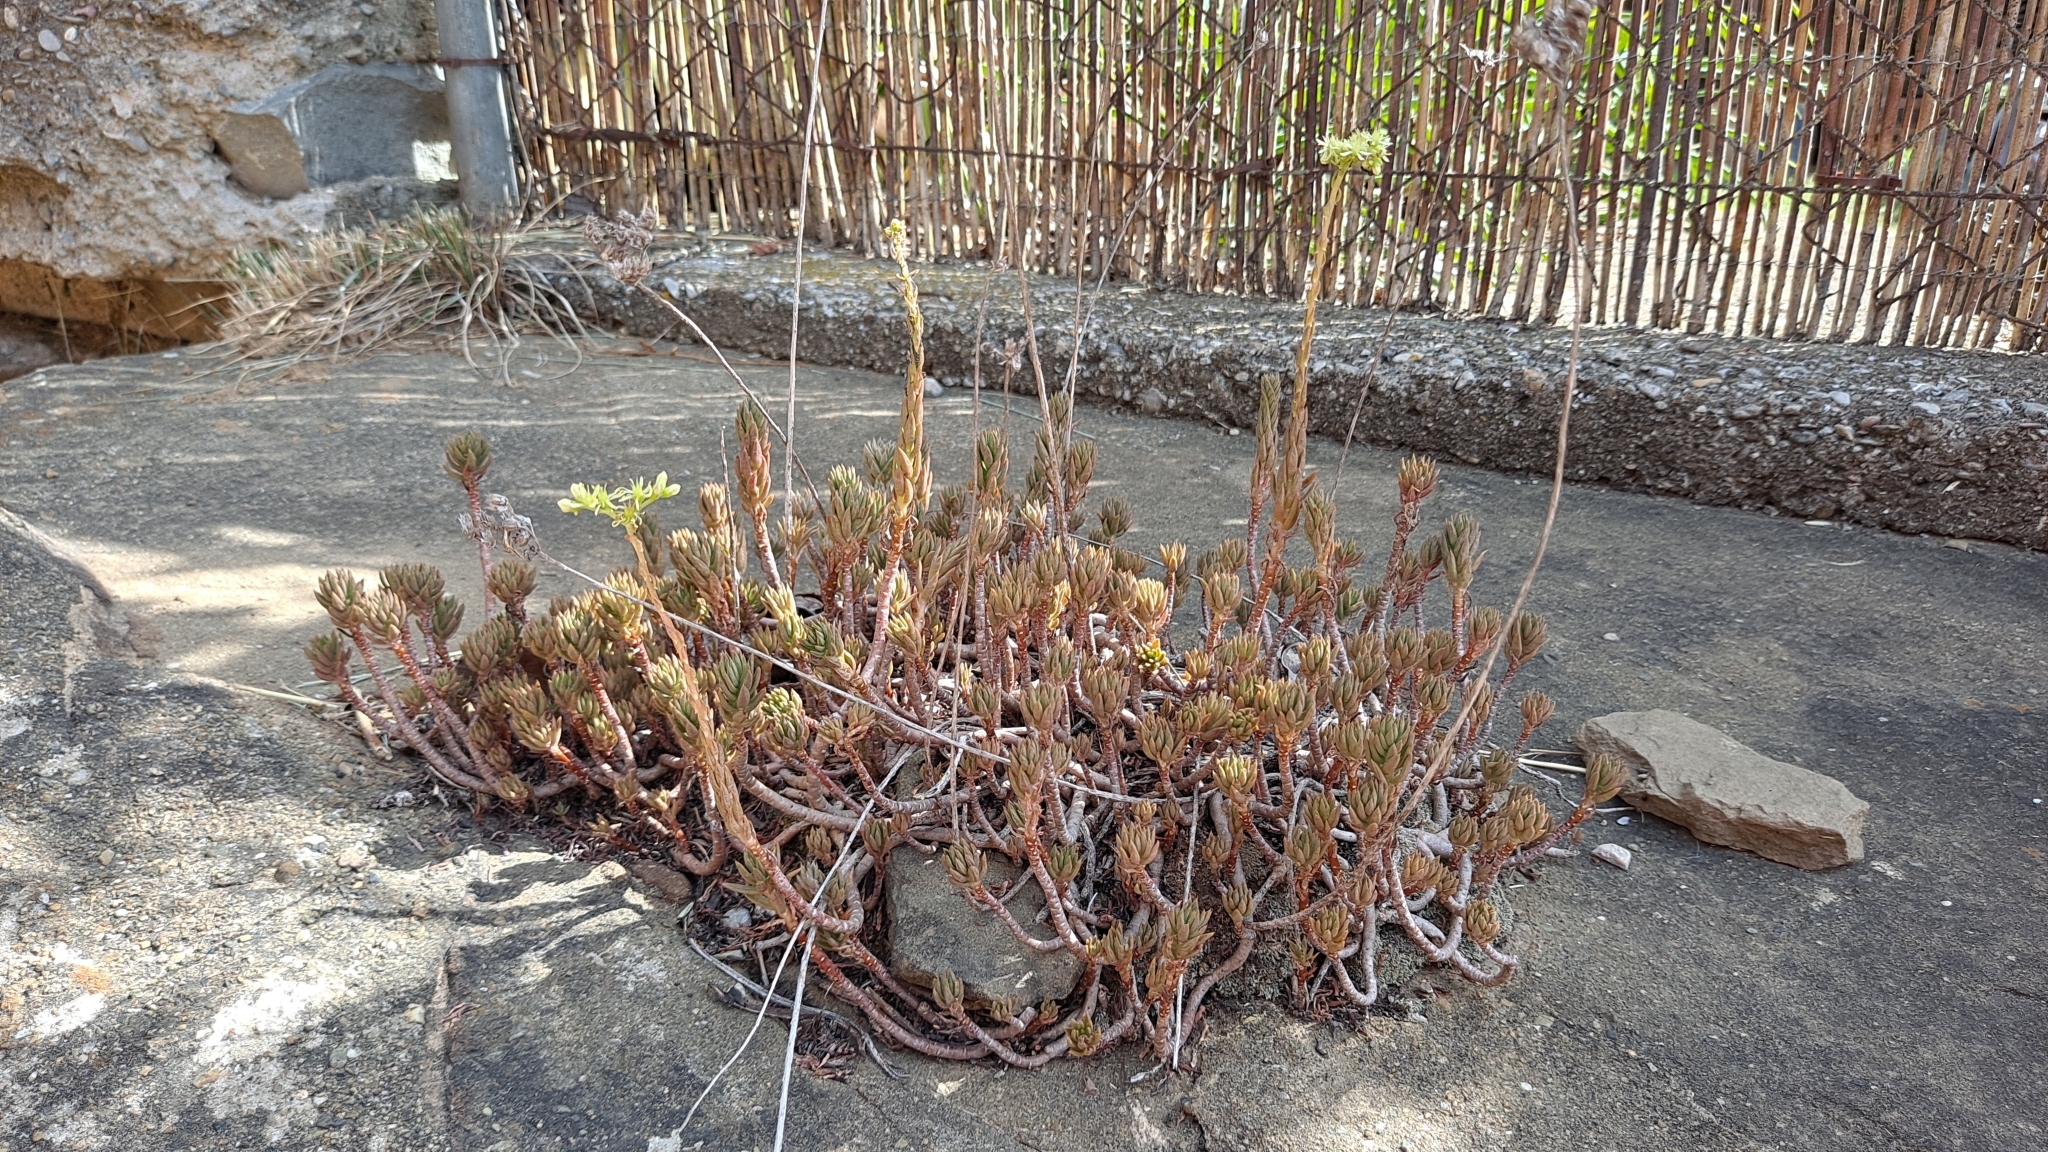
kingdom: Plantae
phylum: Tracheophyta
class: Magnoliopsida
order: Saxifragales
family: Crassulaceae
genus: Petrosedum
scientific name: Petrosedum sediforme
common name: Pale stonecrop
